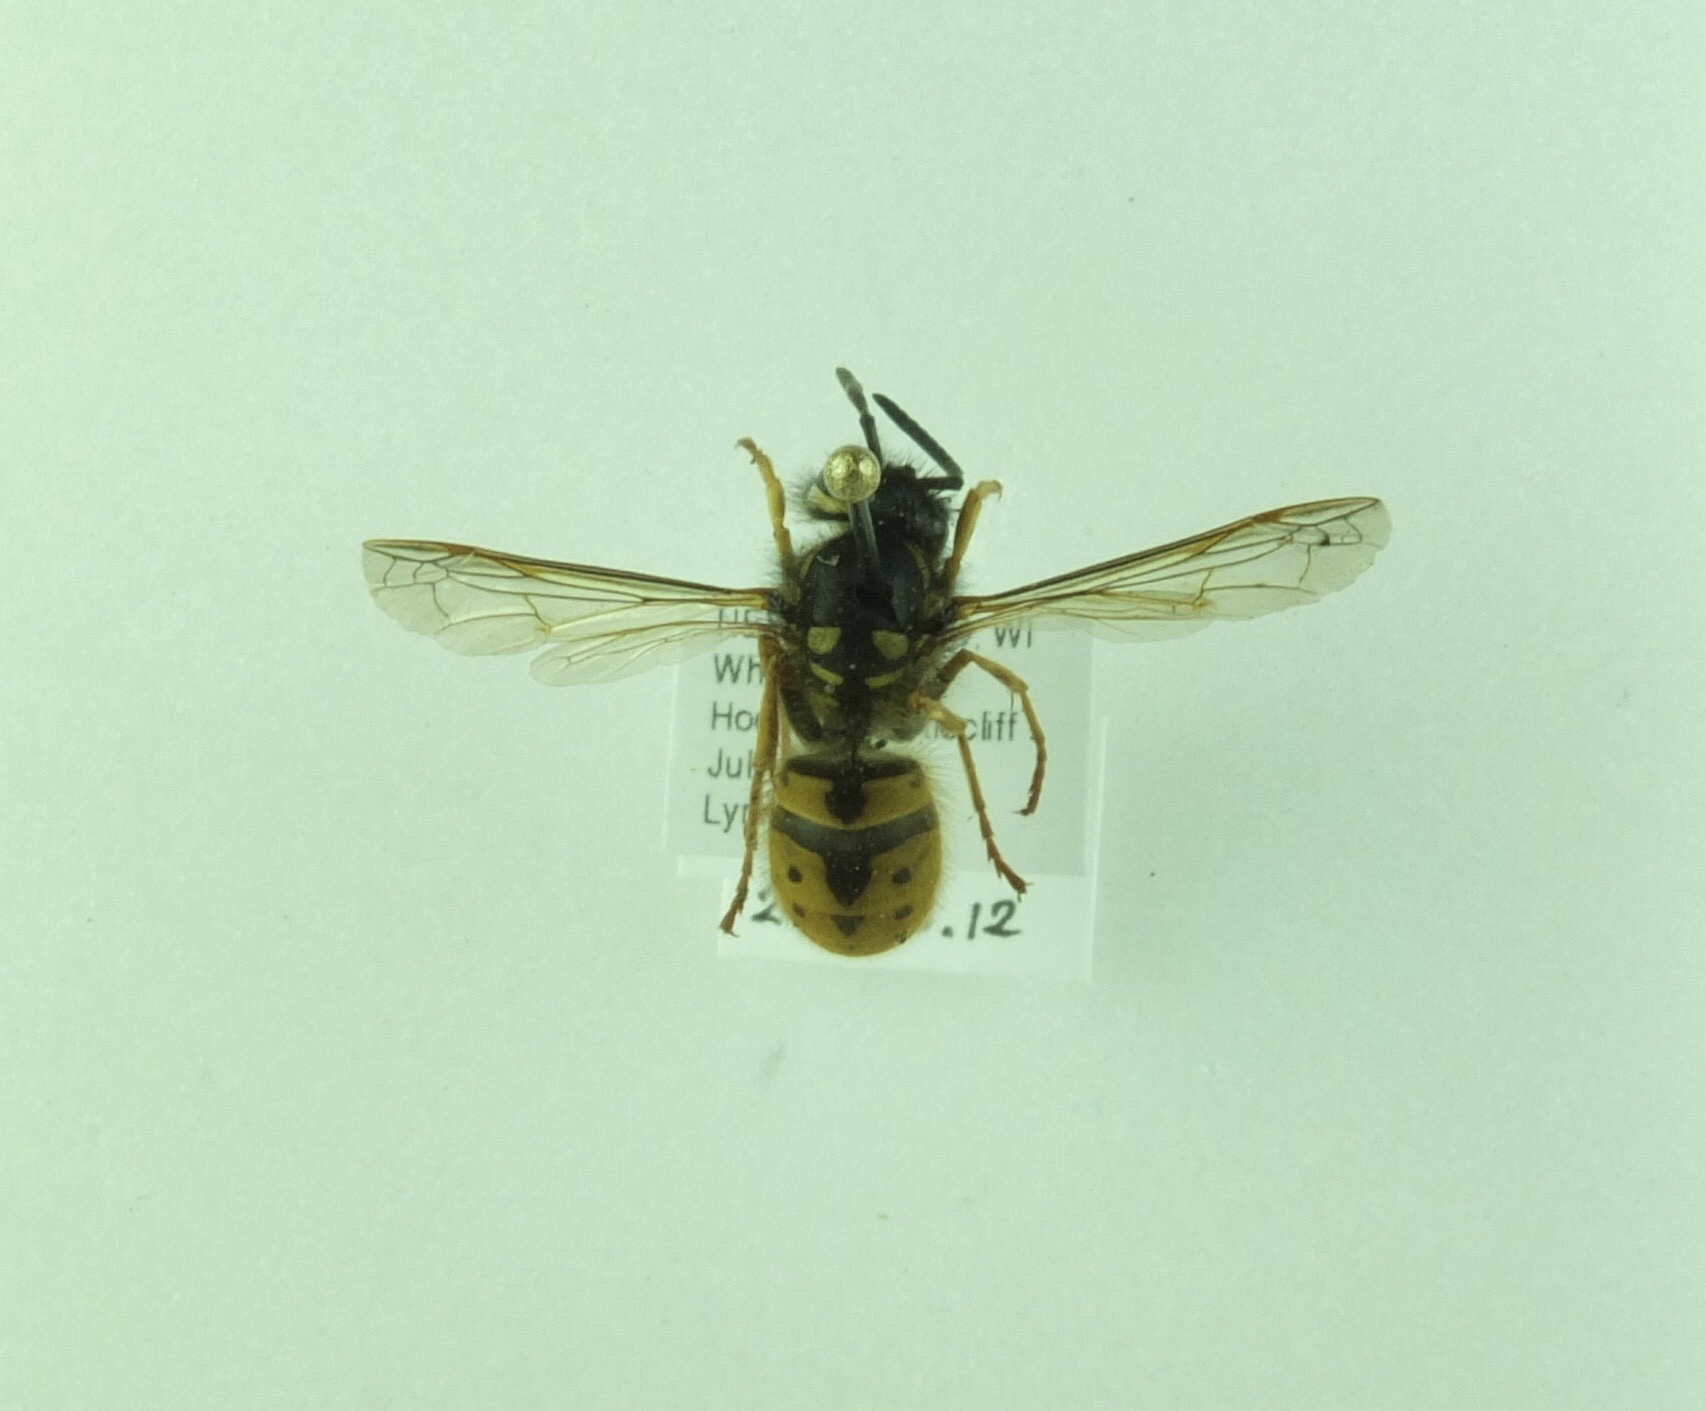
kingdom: Animalia
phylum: Arthropoda
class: Insecta
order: Hymenoptera
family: Vespidae
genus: Vespula
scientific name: Vespula germanica
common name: German wasp
